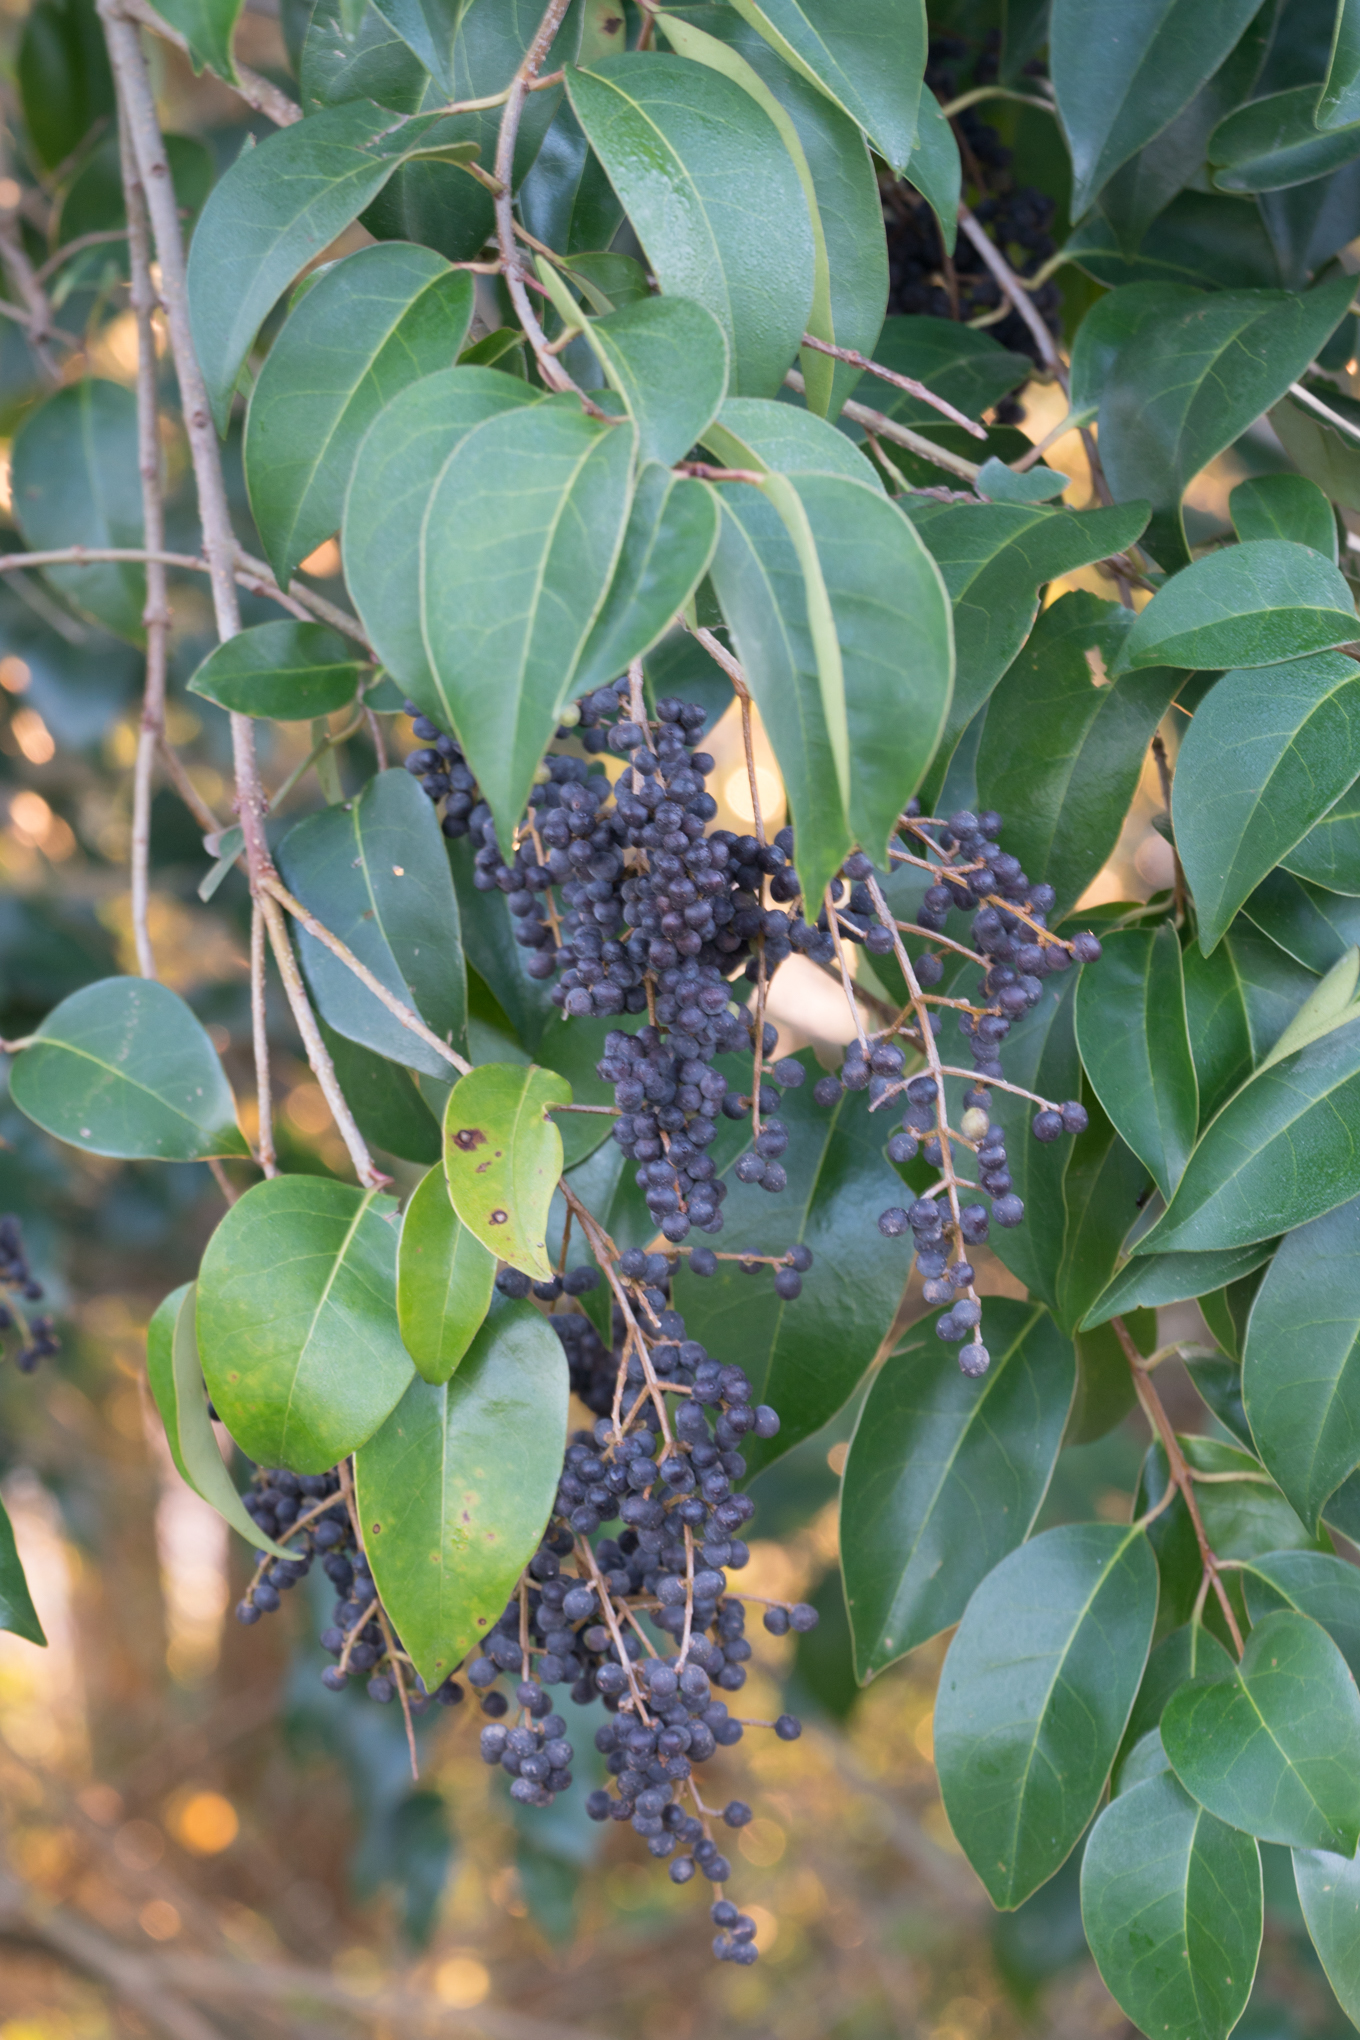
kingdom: Plantae
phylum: Tracheophyta
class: Magnoliopsida
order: Lamiales
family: Oleaceae
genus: Ligustrum
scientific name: Ligustrum lucidum
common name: Glossy privet
